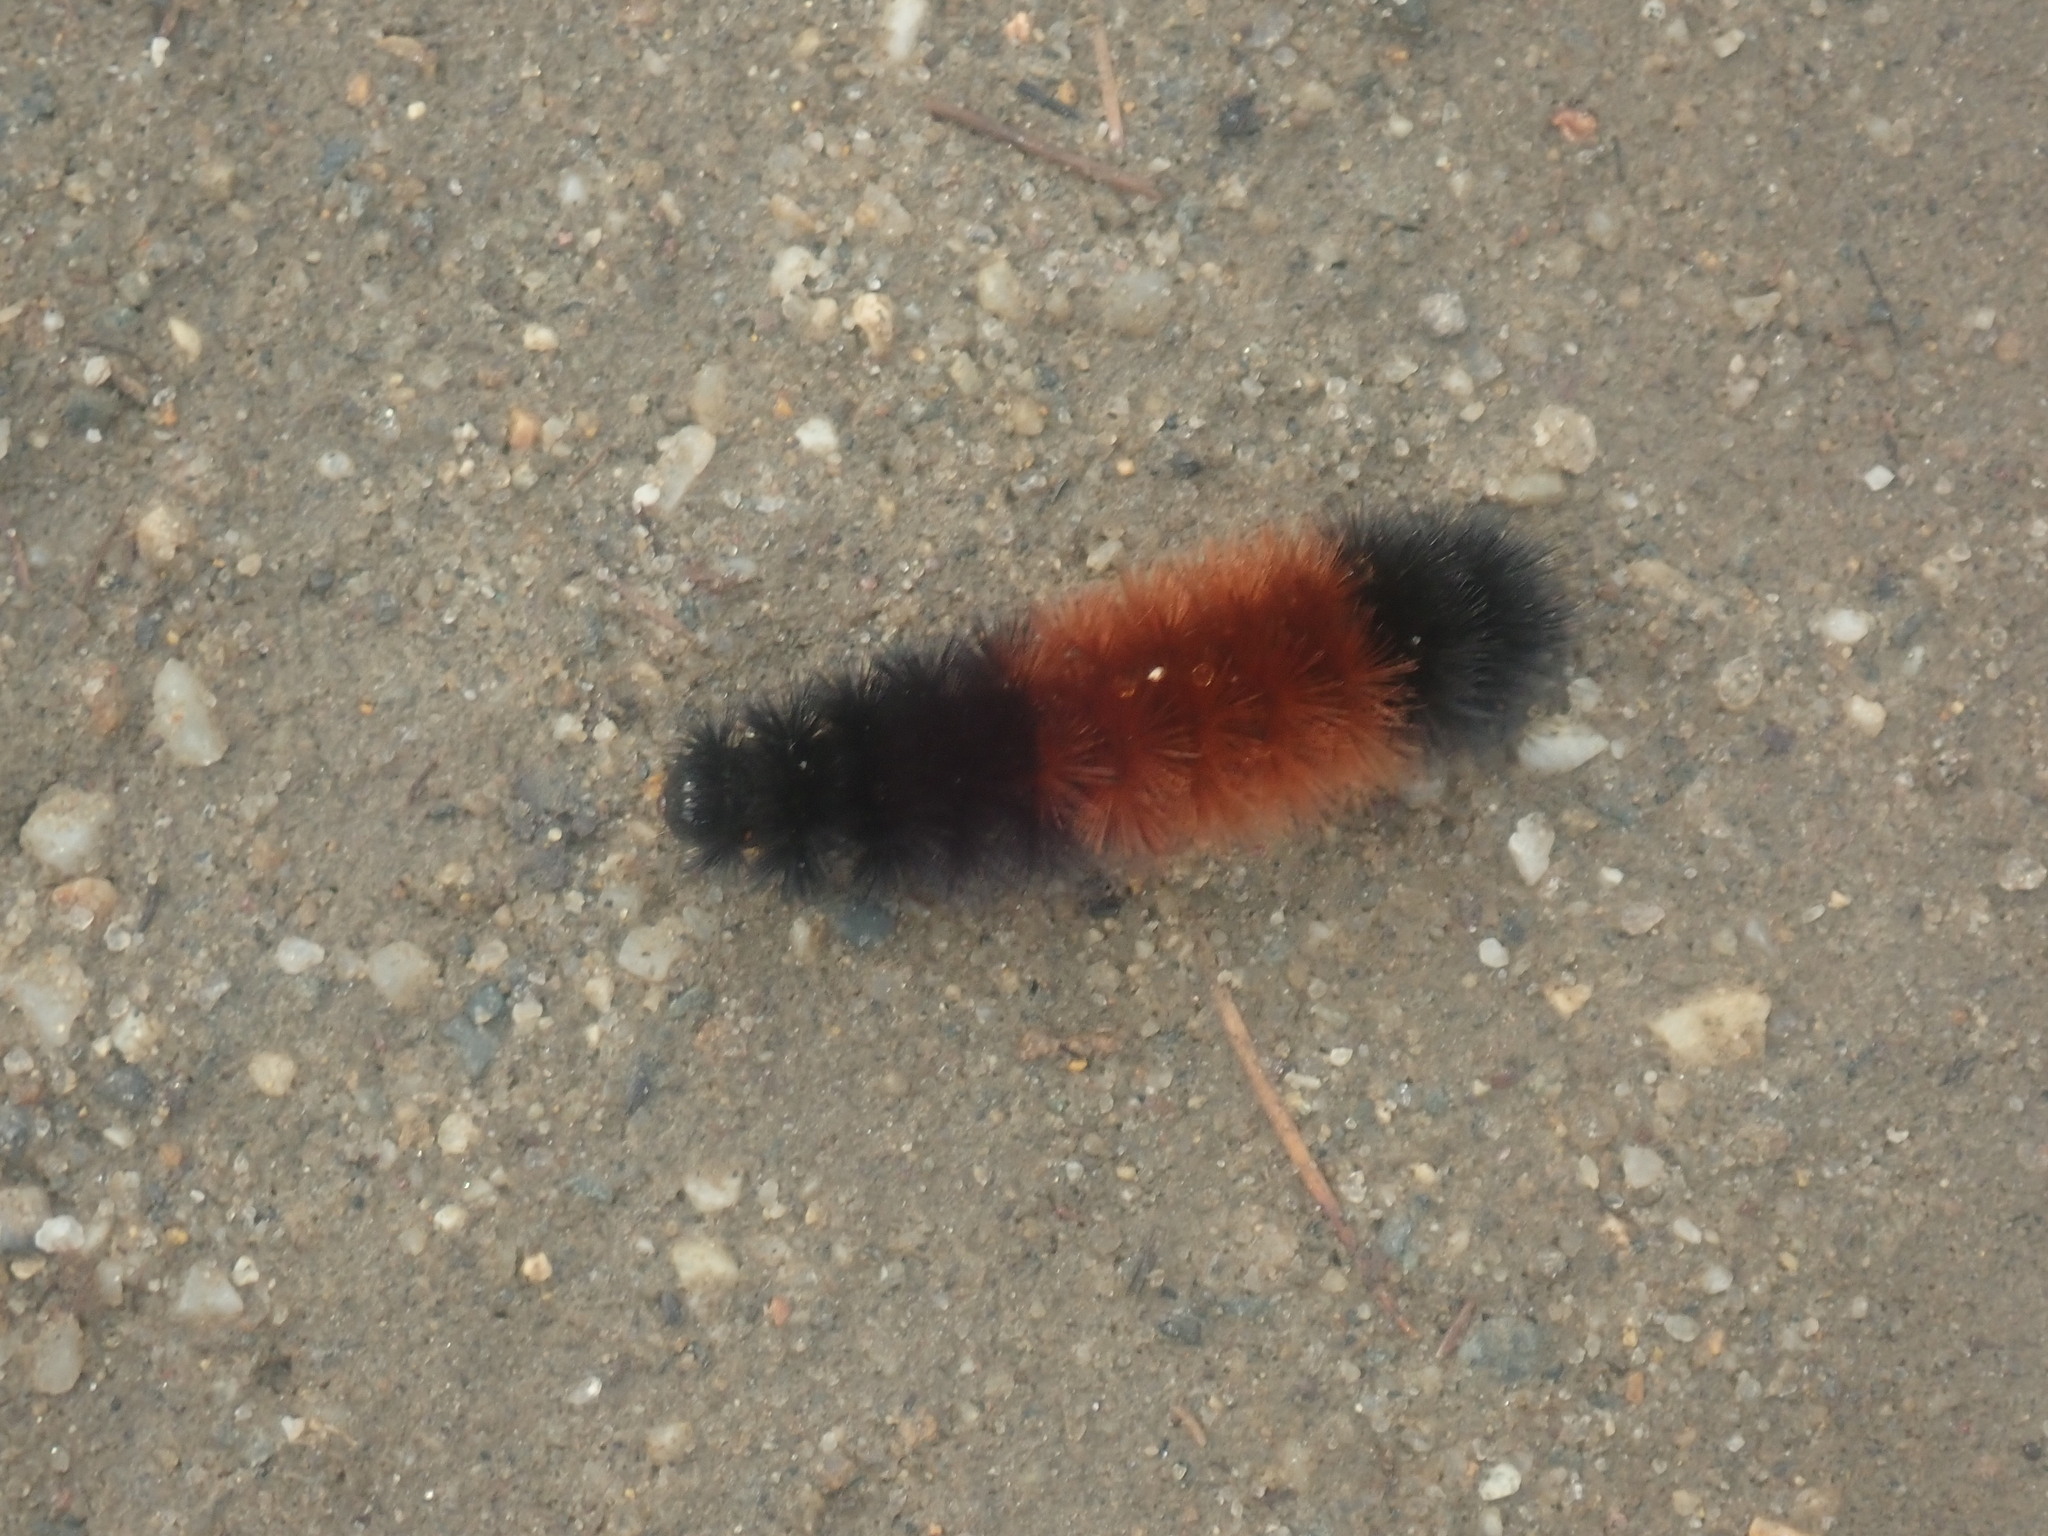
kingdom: Animalia
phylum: Arthropoda
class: Insecta
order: Lepidoptera
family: Erebidae
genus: Pyrrharctia
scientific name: Pyrrharctia isabella
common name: Isabella tiger moth
